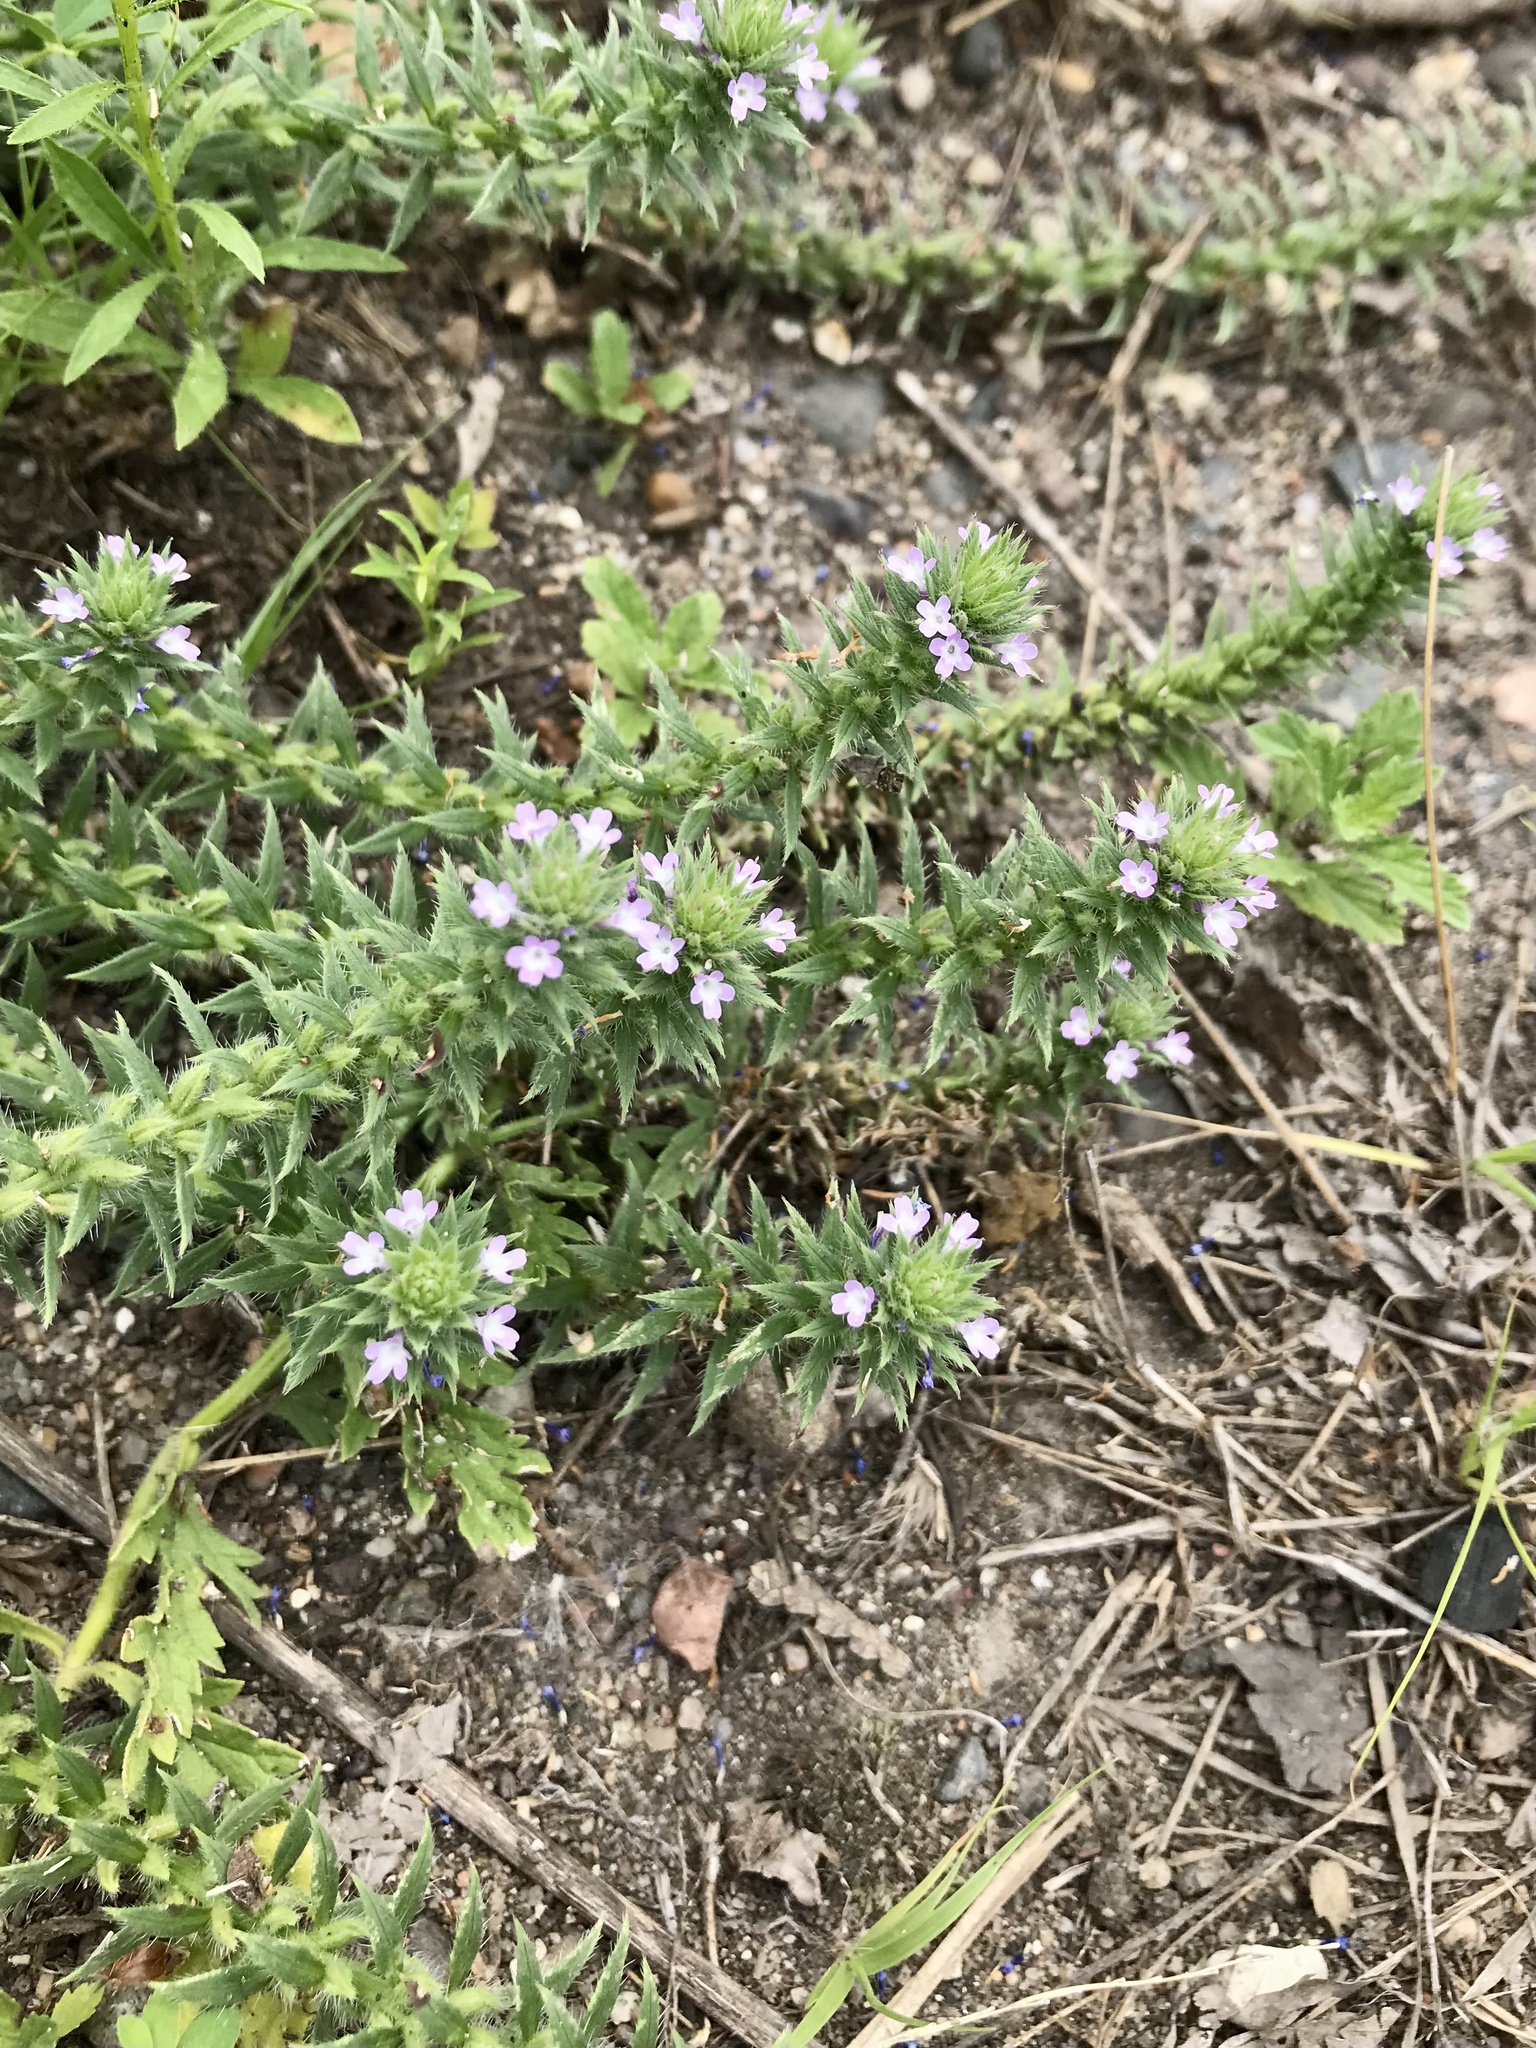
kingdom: Plantae
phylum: Tracheophyta
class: Magnoliopsida
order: Lamiales
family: Verbenaceae
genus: Verbena
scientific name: Verbena bracteata
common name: Bracted vervain
